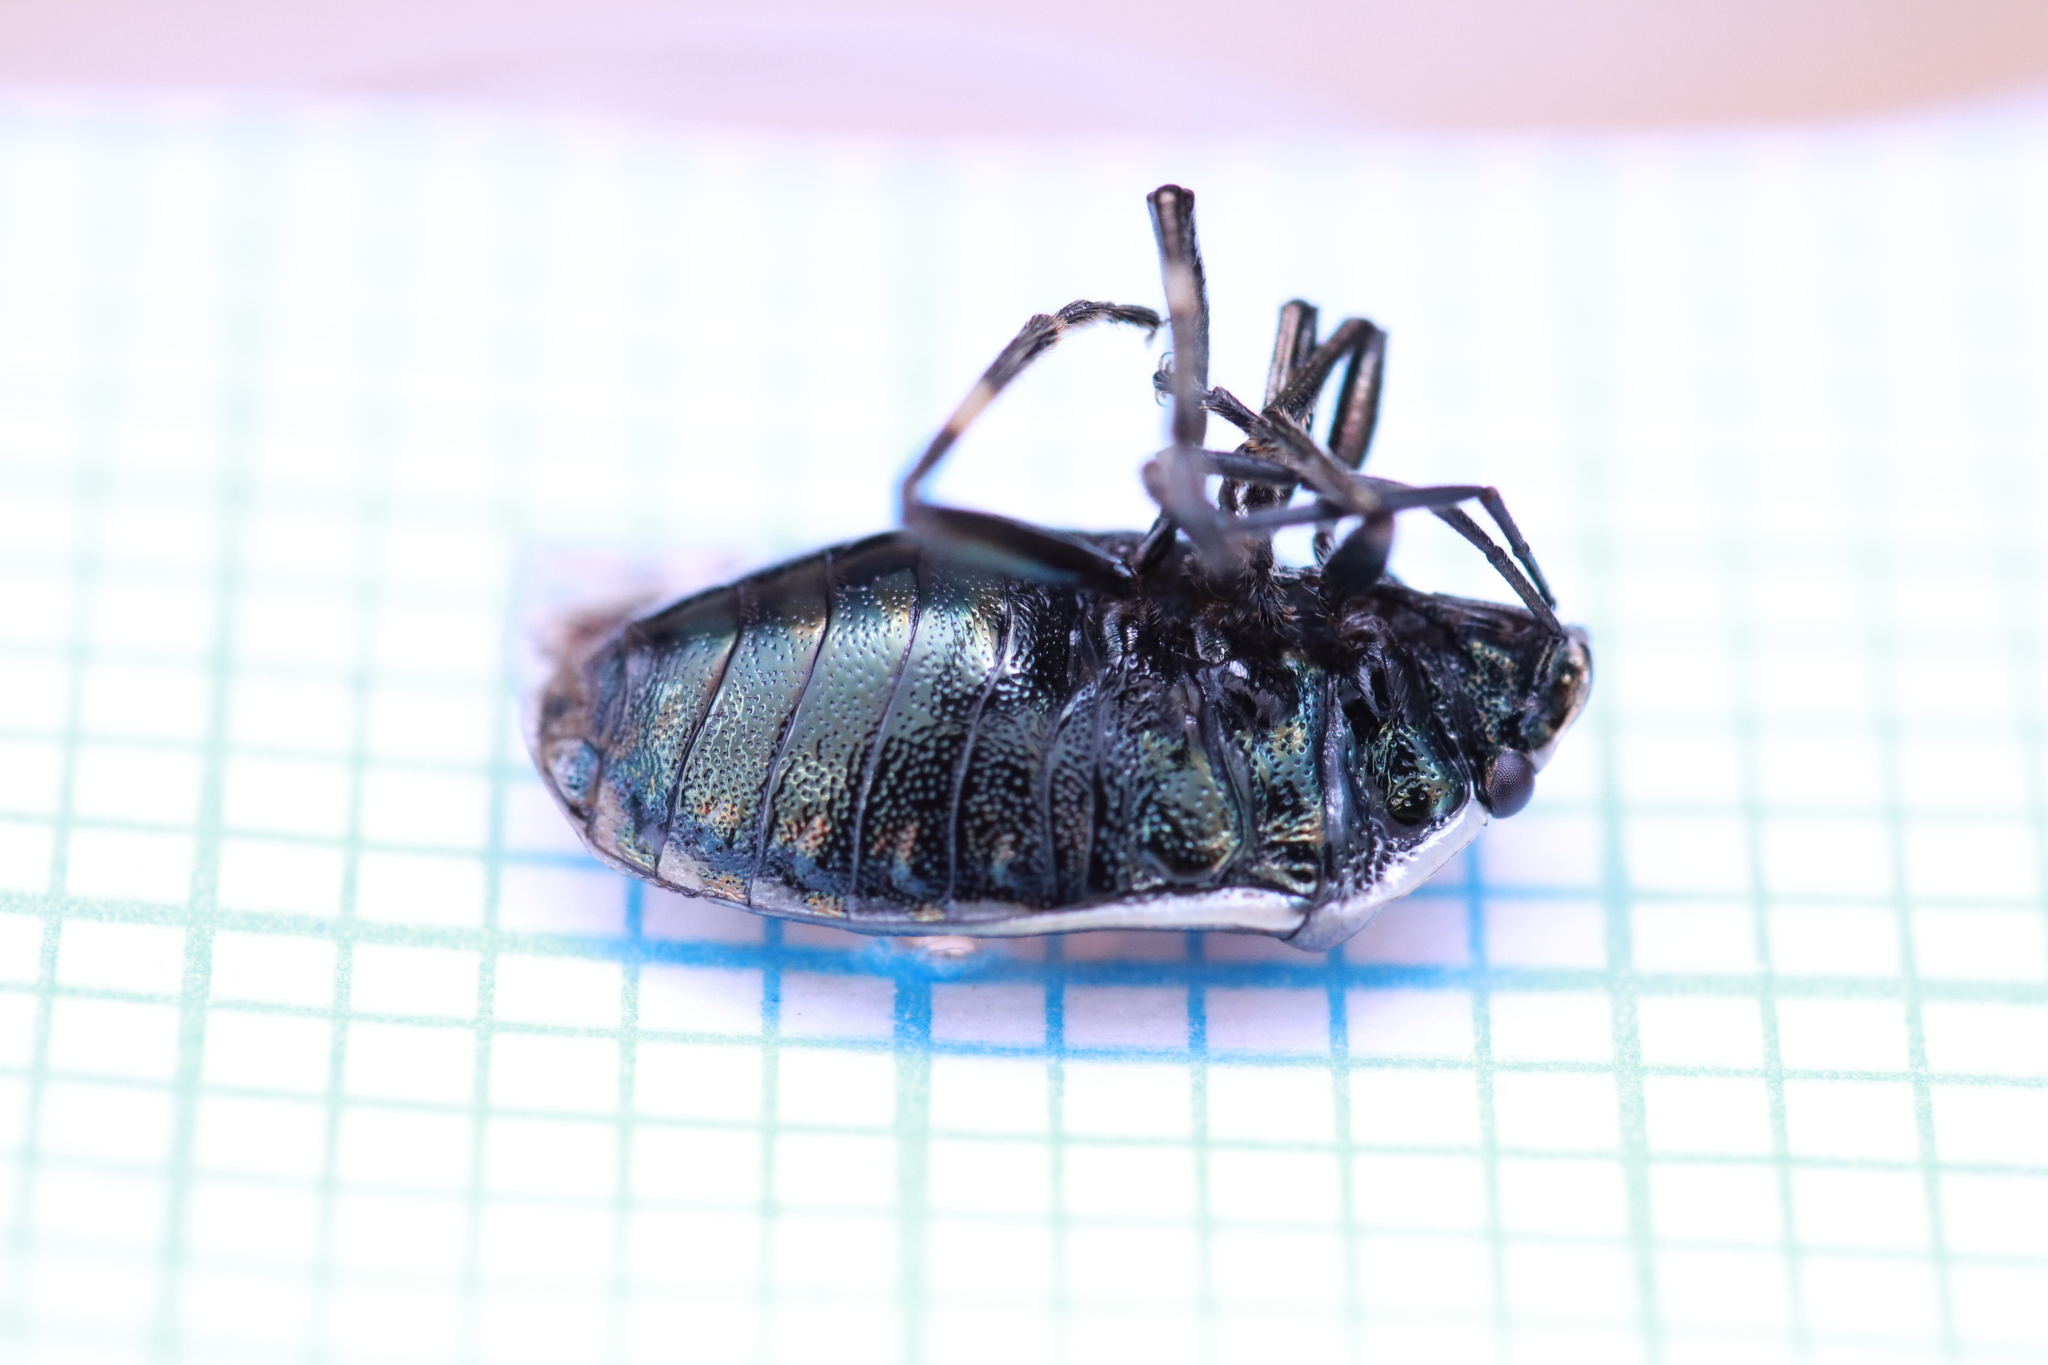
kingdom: Animalia
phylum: Arthropoda
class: Insecta
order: Hemiptera
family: Pentatomidae
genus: Eurydema
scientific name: Eurydema oleracea
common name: Cabbage bug
